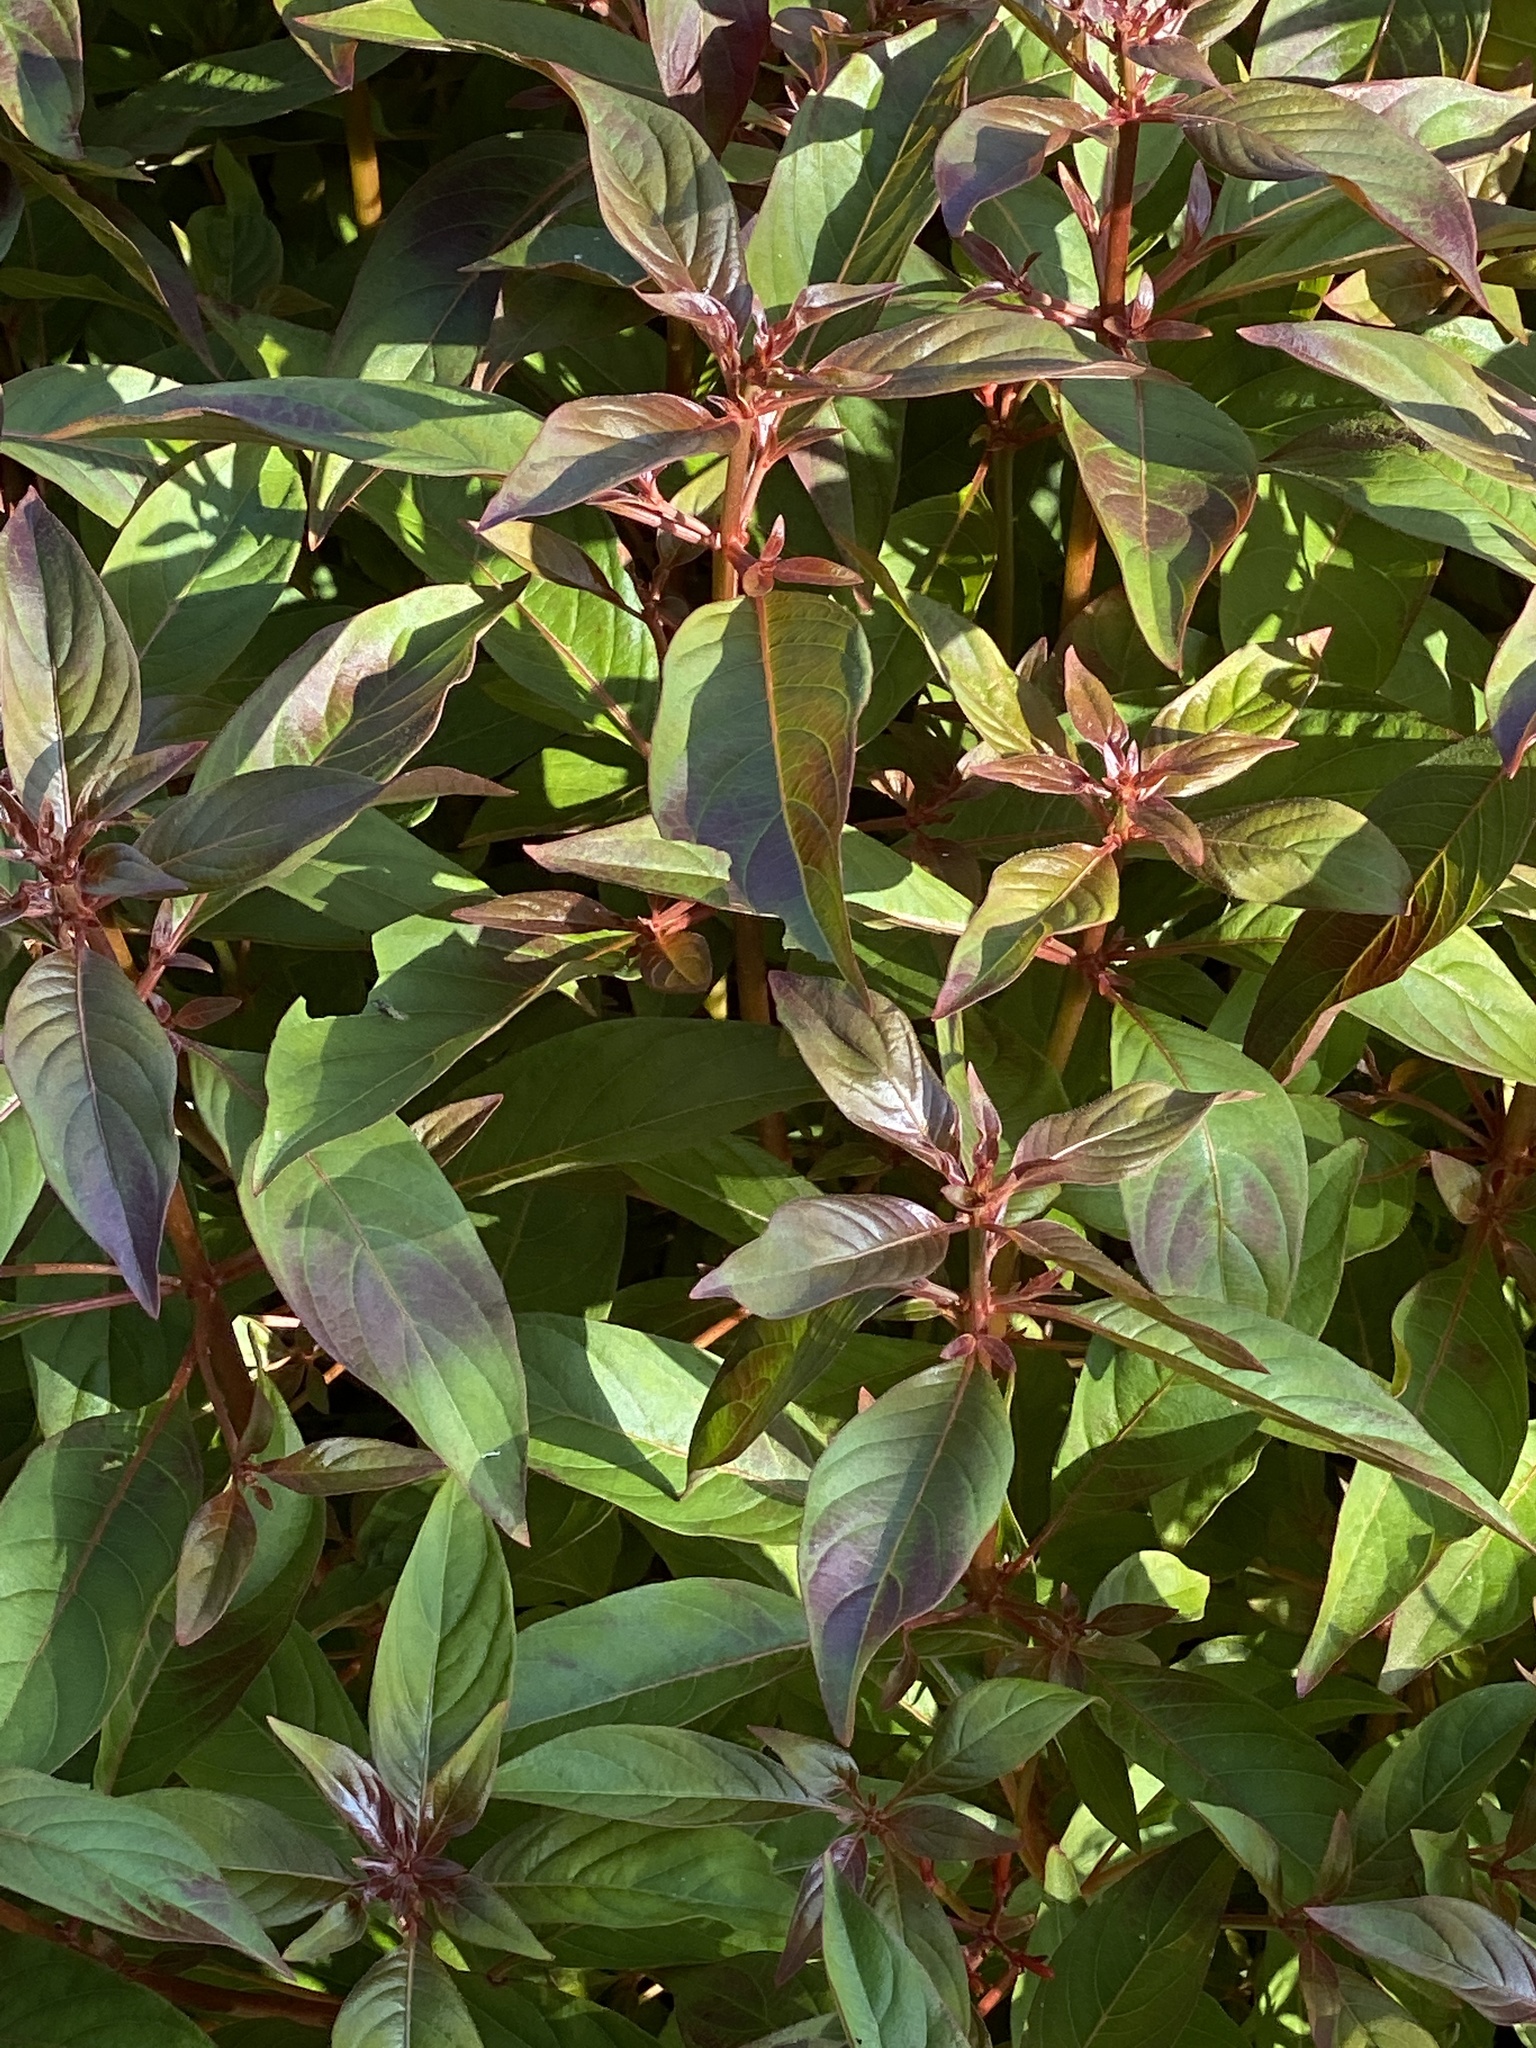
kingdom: Plantae
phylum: Tracheophyta
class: Magnoliopsida
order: Gentianales
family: Rubiaceae
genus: Hamelia
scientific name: Hamelia patens
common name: Redhead
